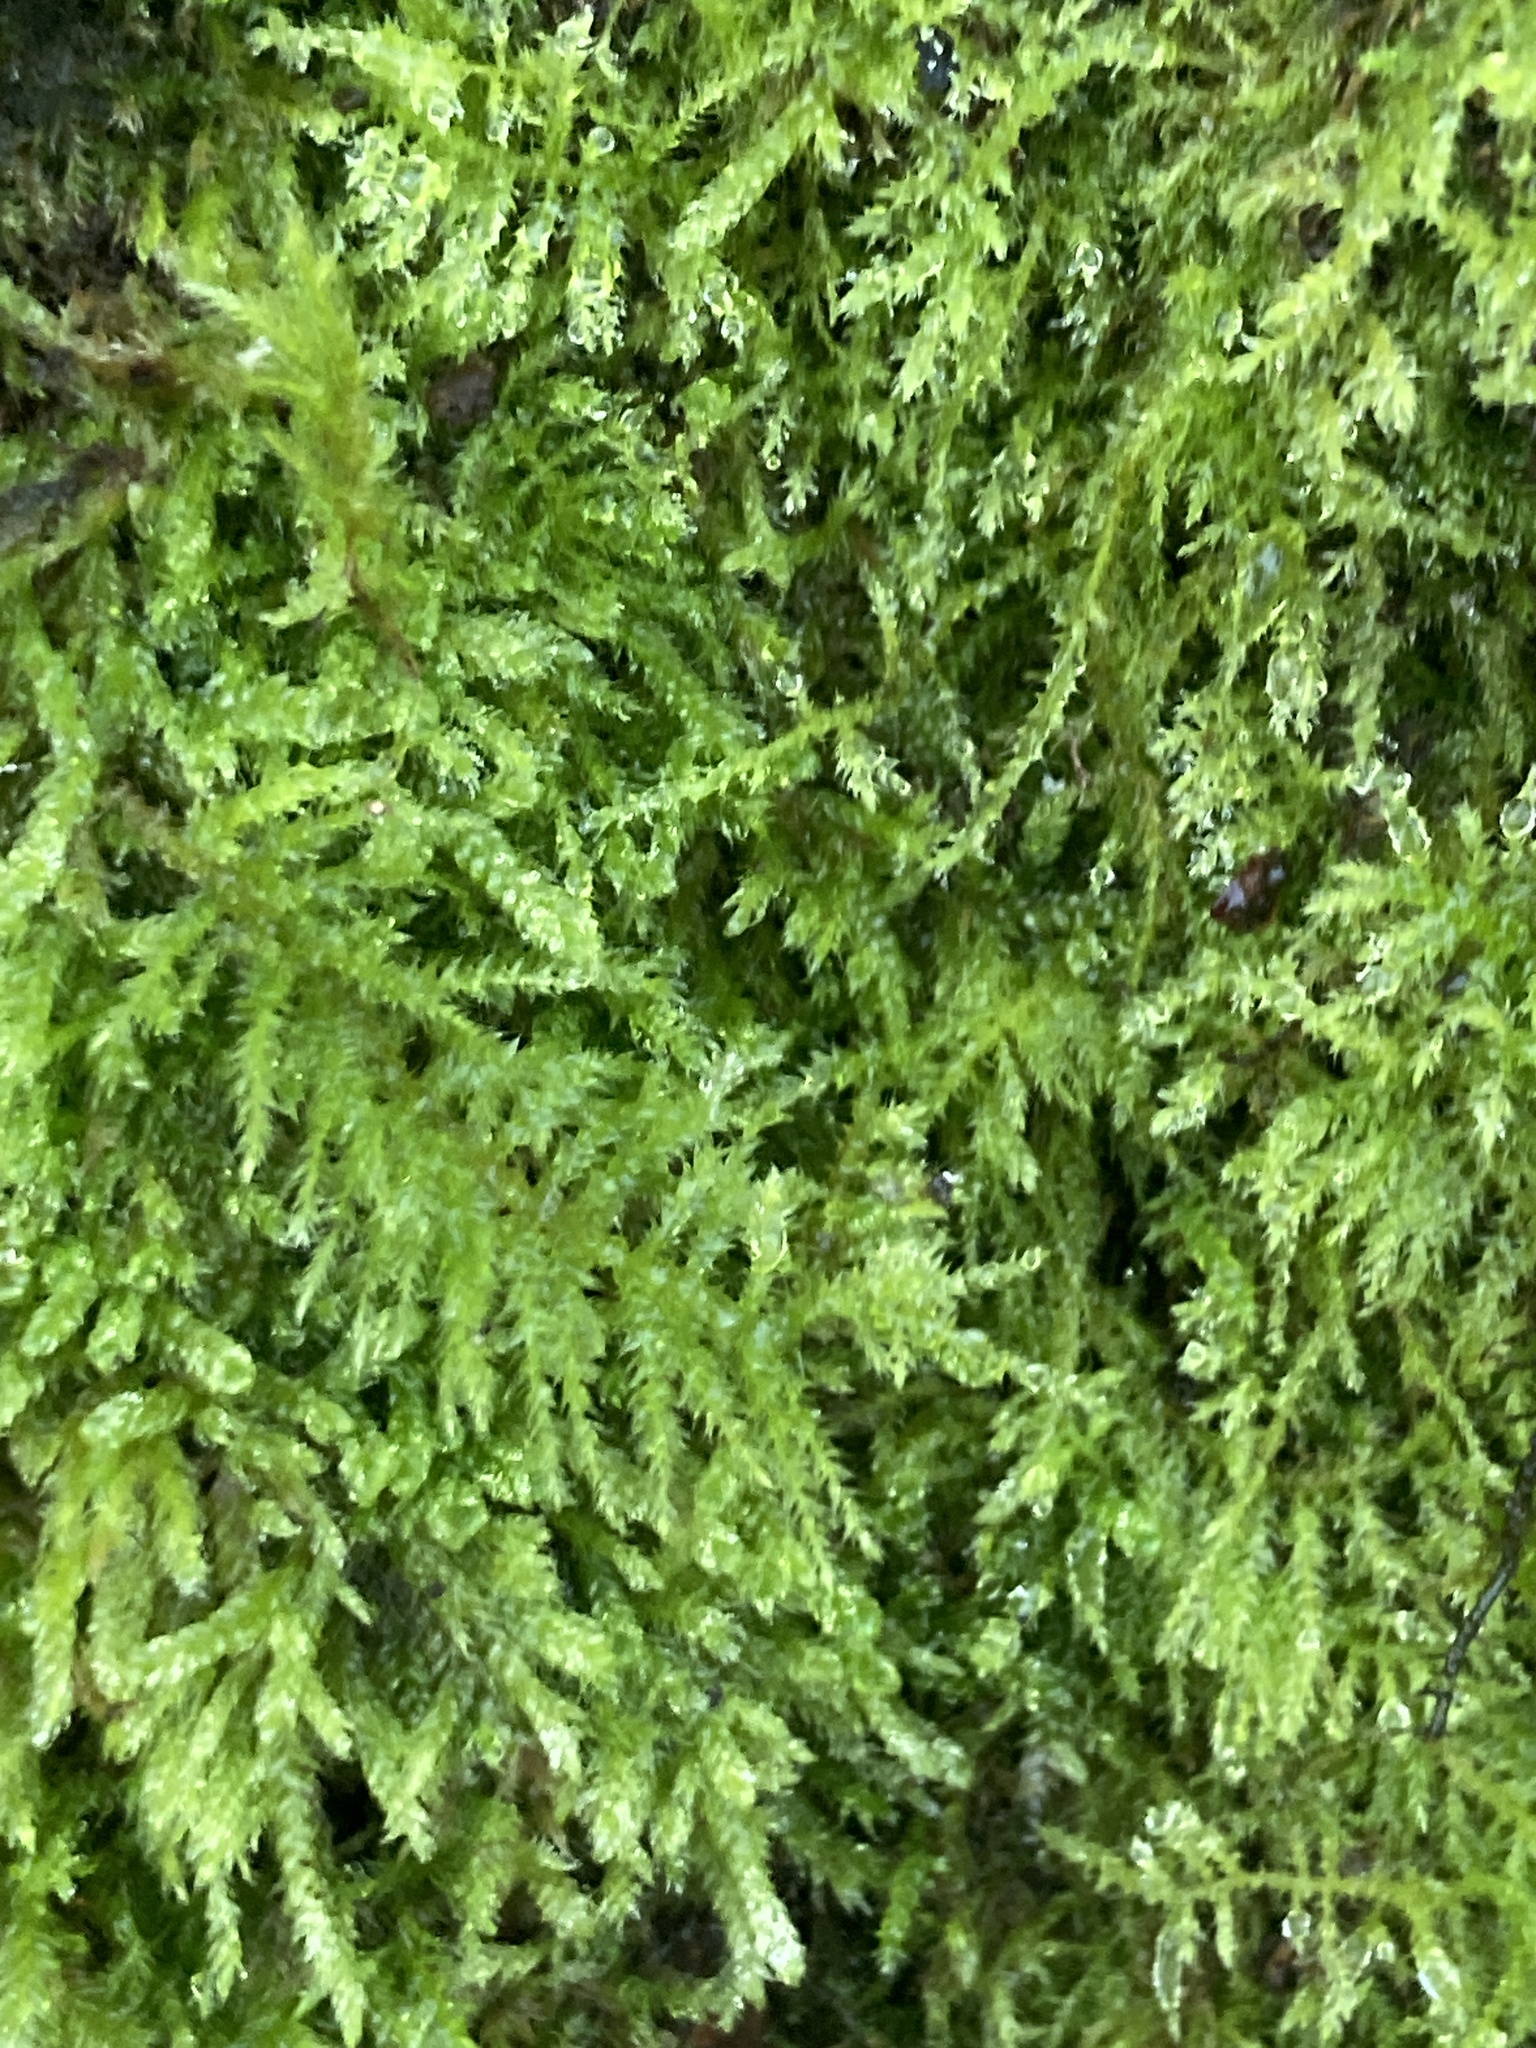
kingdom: Plantae
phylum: Bryophyta
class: Bryopsida
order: Hypnales
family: Brachytheciaceae
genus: Kindbergia
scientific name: Kindbergia praelonga
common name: Slender beaked moss
